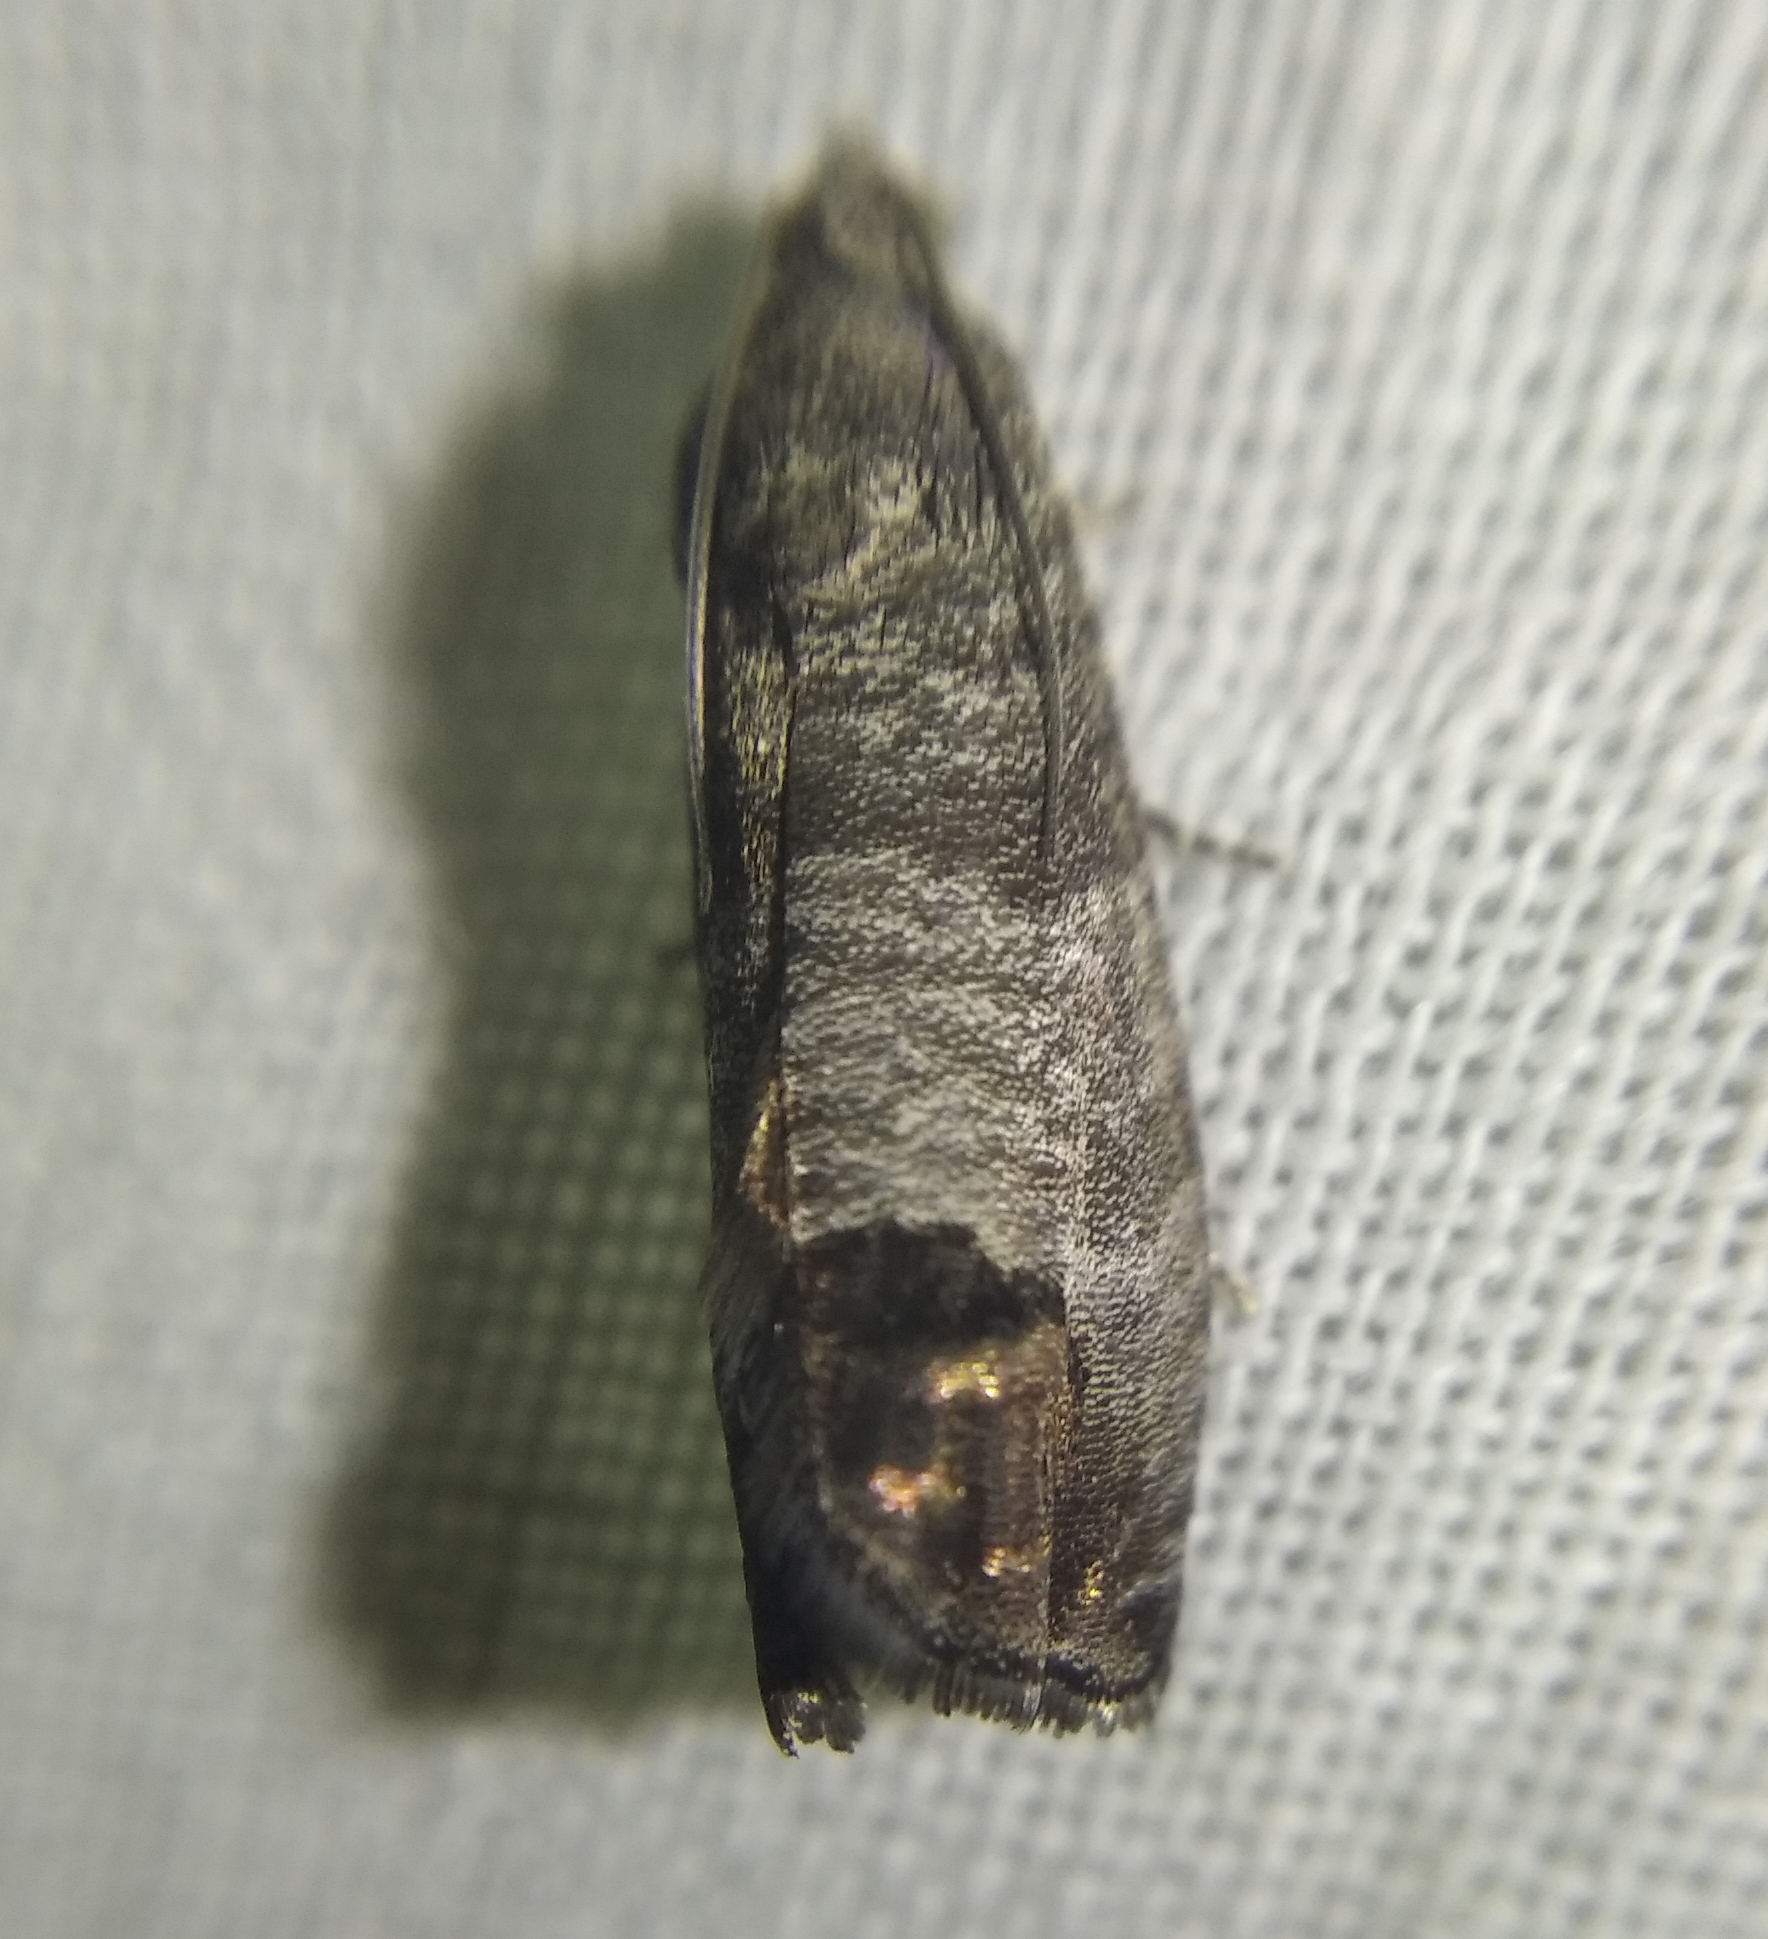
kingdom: Animalia
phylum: Arthropoda
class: Insecta
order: Lepidoptera
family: Tortricidae
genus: Cydia
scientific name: Cydia pomonella
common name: Codling moth
